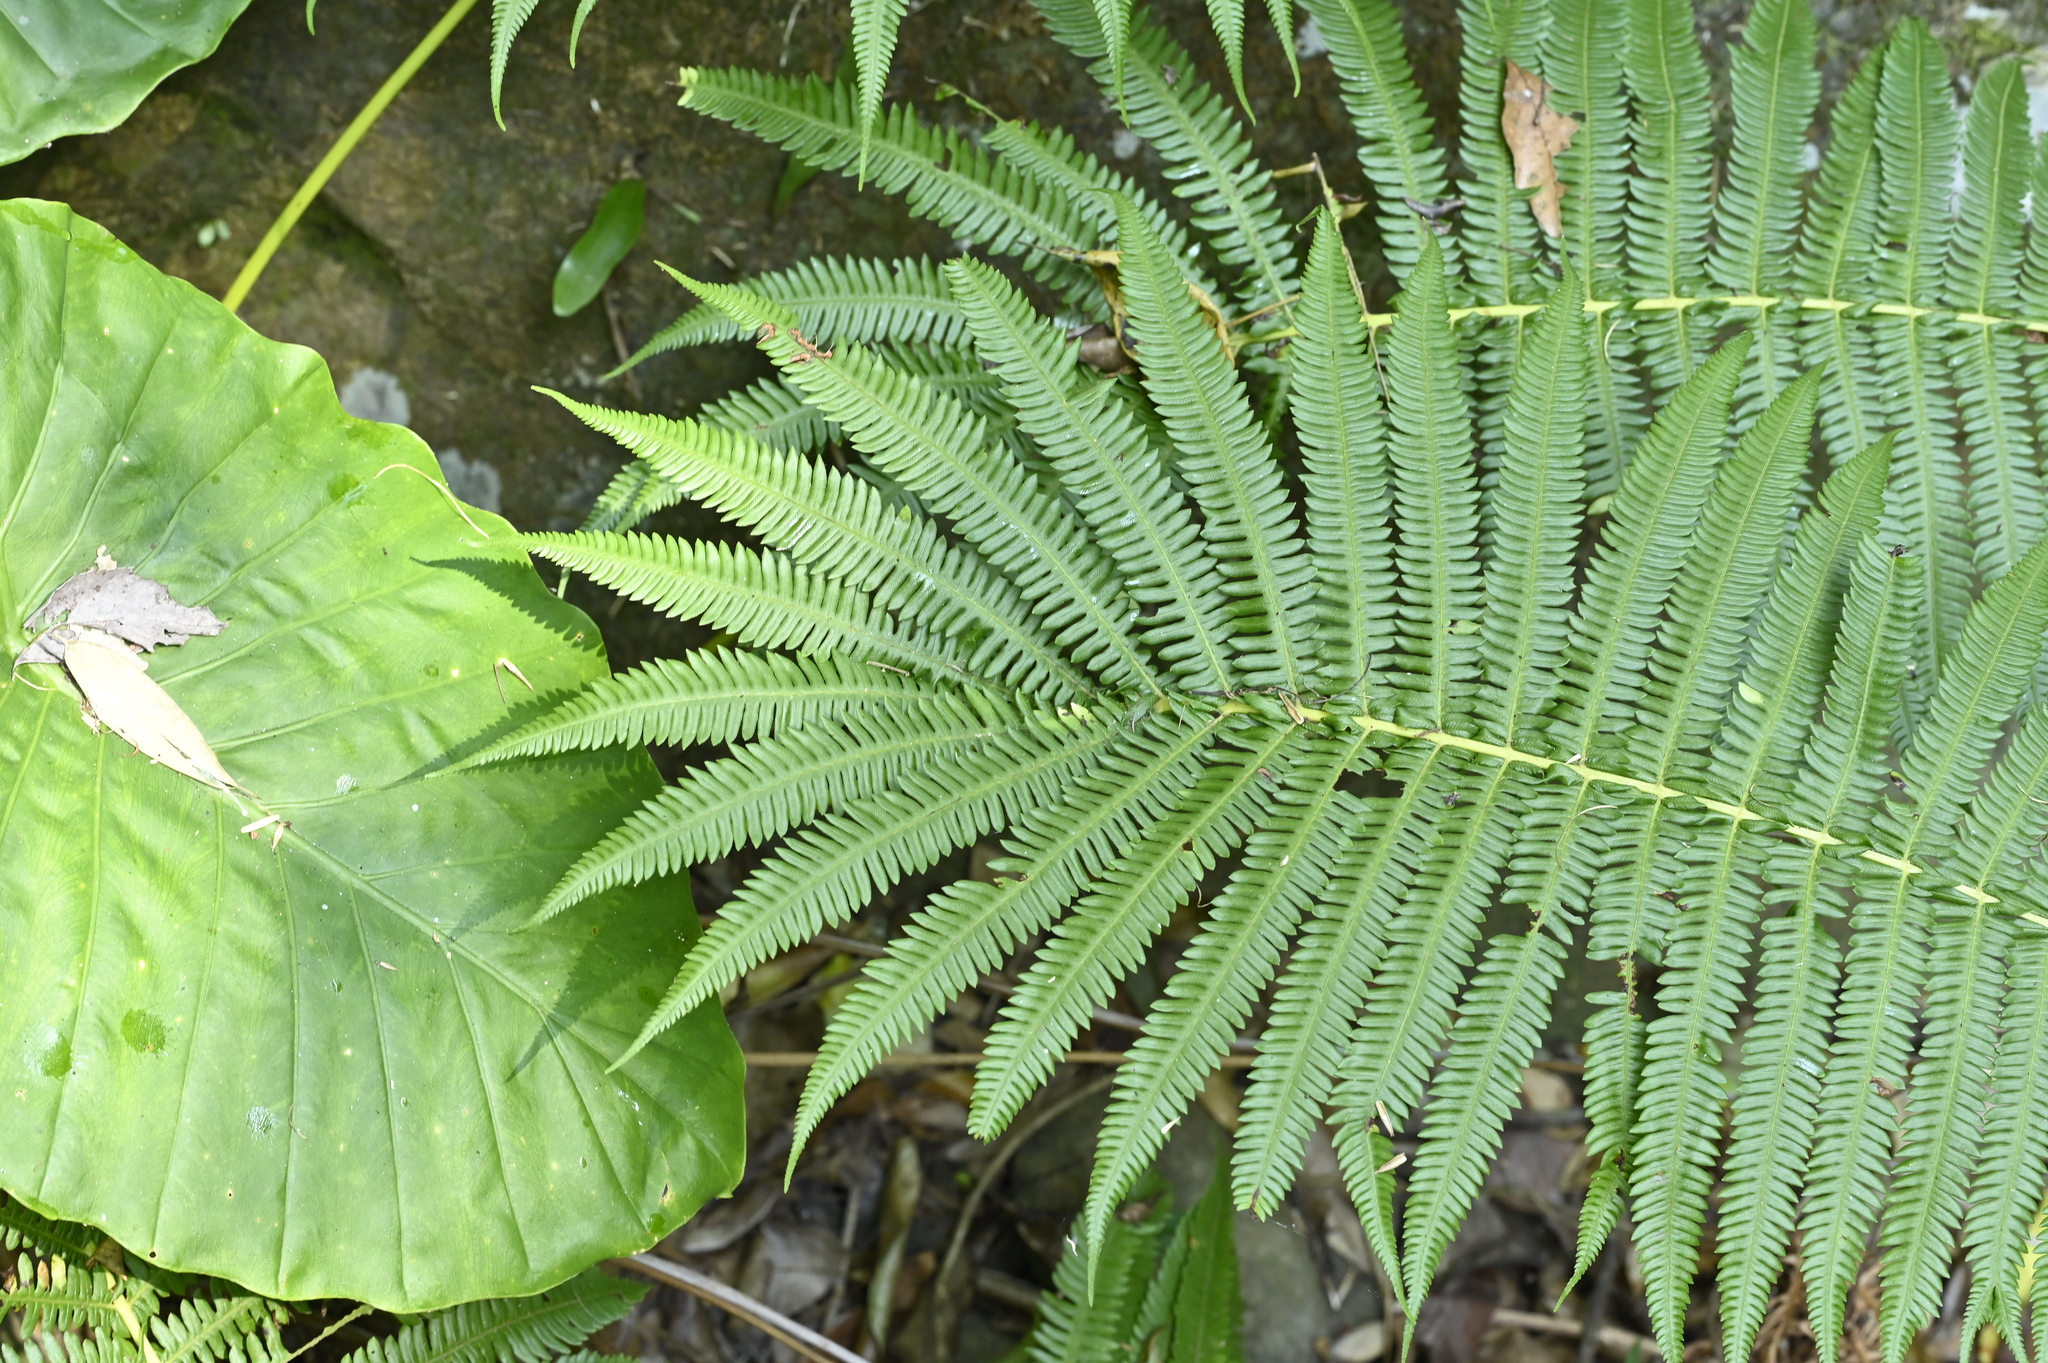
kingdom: Plantae
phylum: Tracheophyta
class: Polypodiopsida
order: Polypodiales
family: Thelypteridaceae
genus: Glaphyropteridopsis
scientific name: Glaphyropteridopsis erubescens
